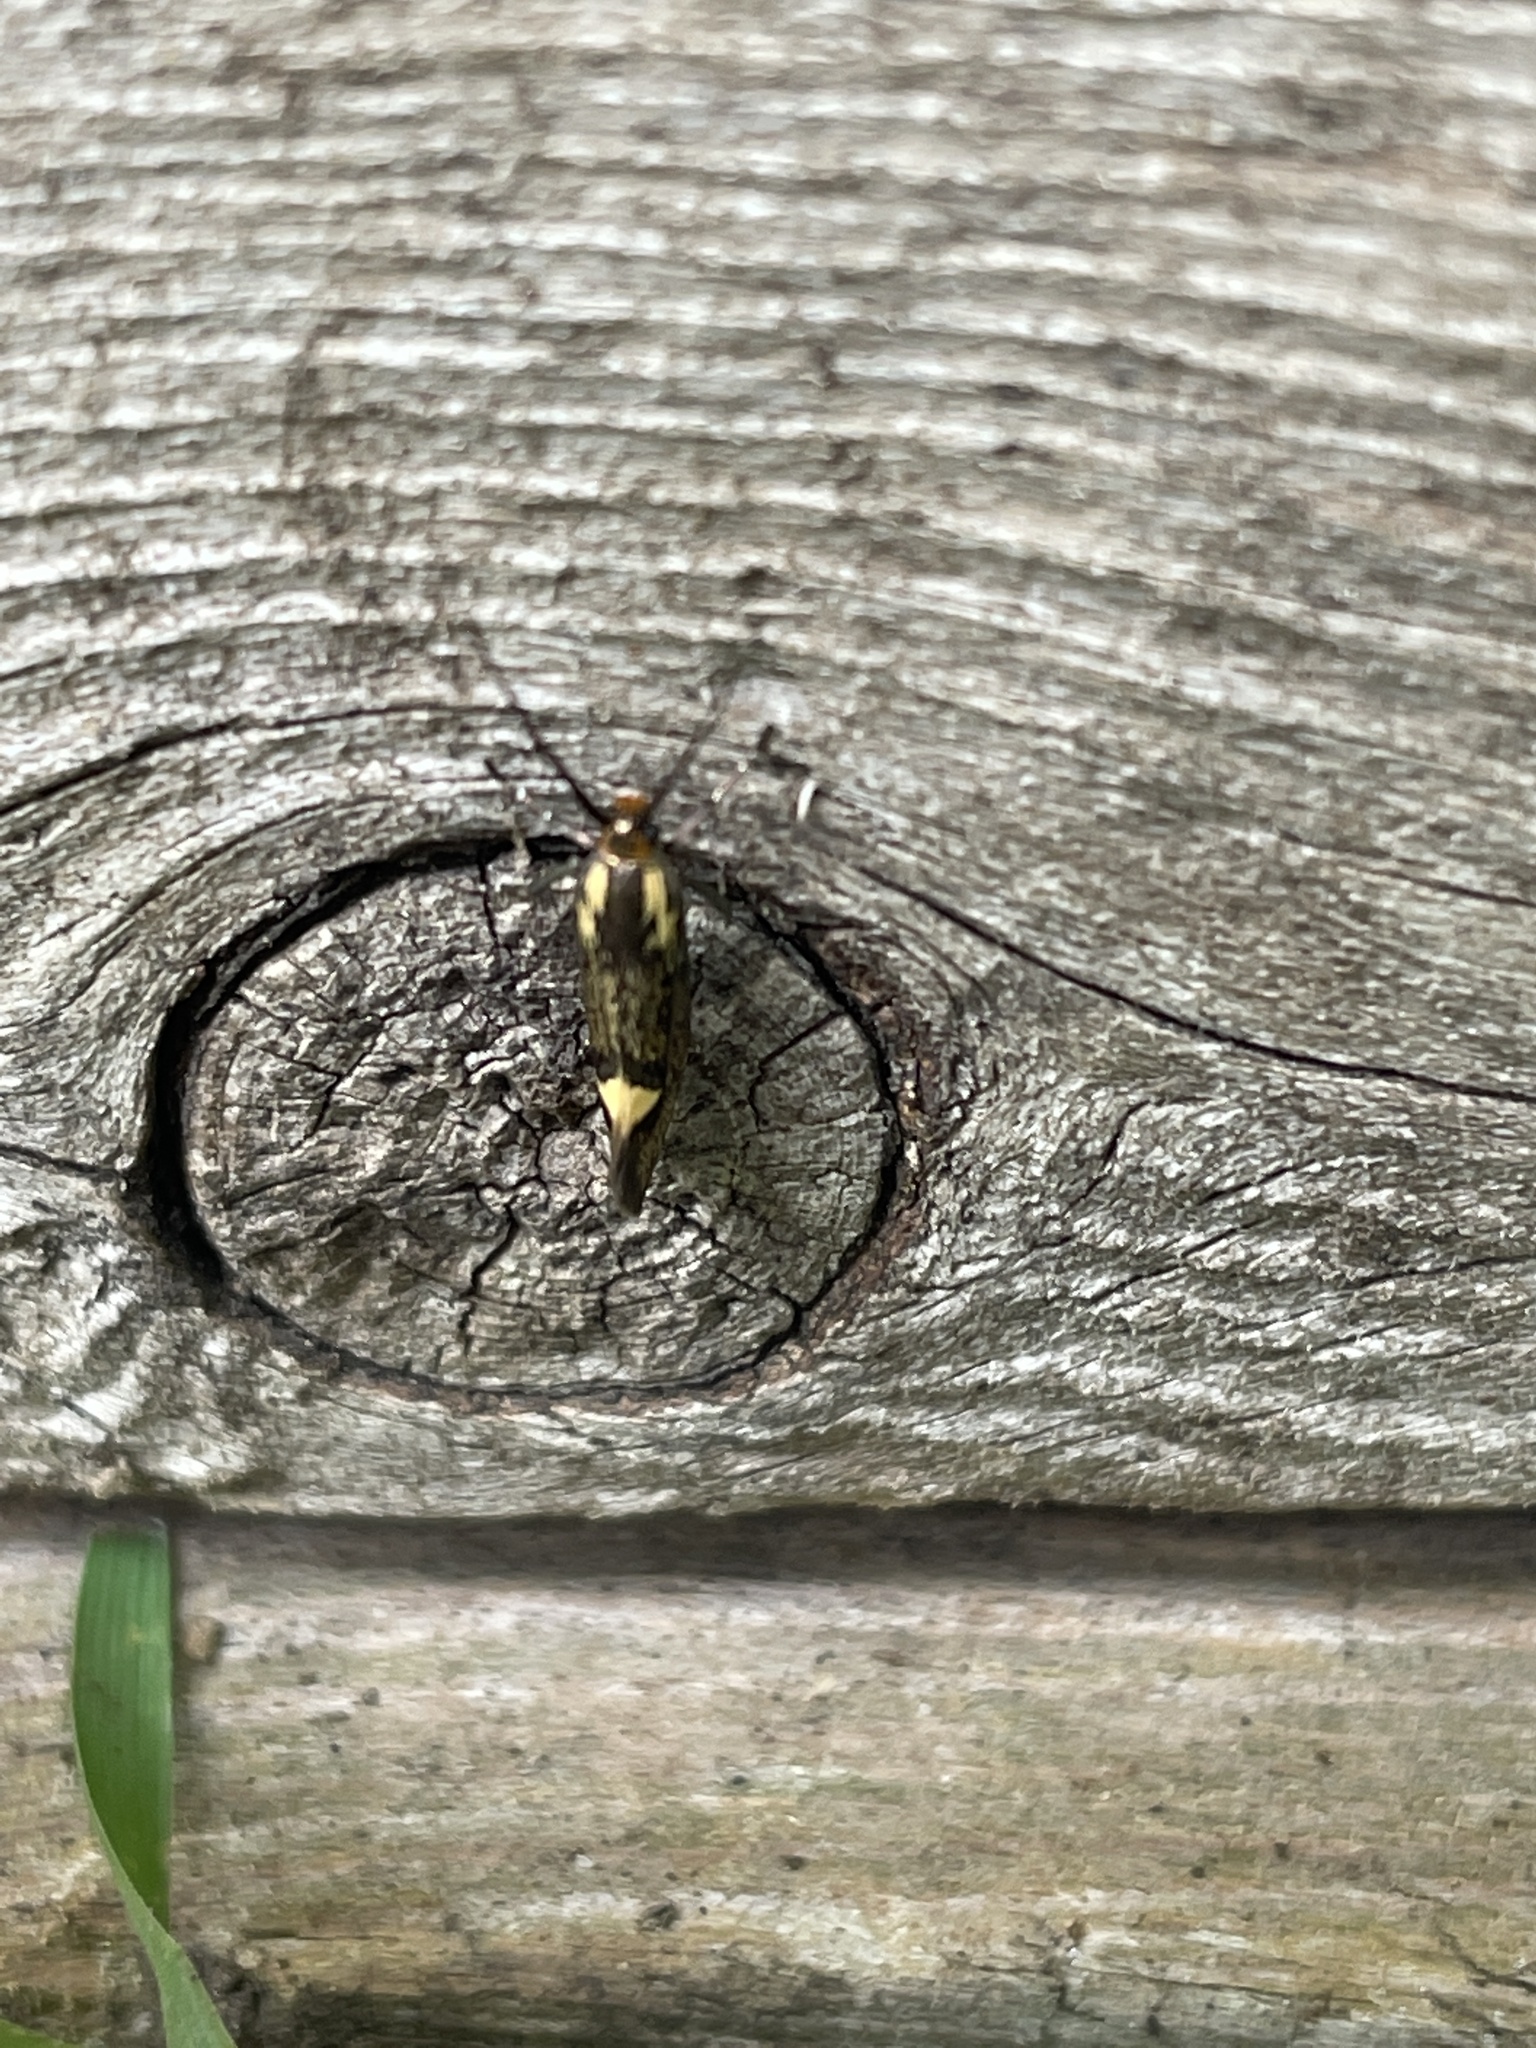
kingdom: Animalia
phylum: Arthropoda
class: Insecta
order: Lepidoptera
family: Oecophoridae
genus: Dafa
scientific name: Dafa Esperia sulphurella
